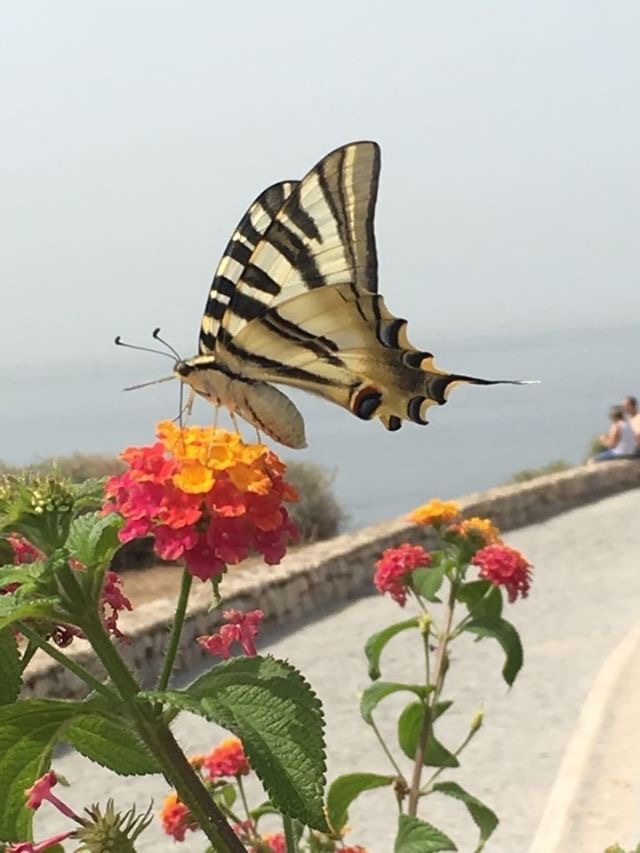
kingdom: Animalia
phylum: Arthropoda
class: Insecta
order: Lepidoptera
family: Papilionidae
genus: Iphiclides
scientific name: Iphiclides feisthamelii
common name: Iberian scarce swallowtail
